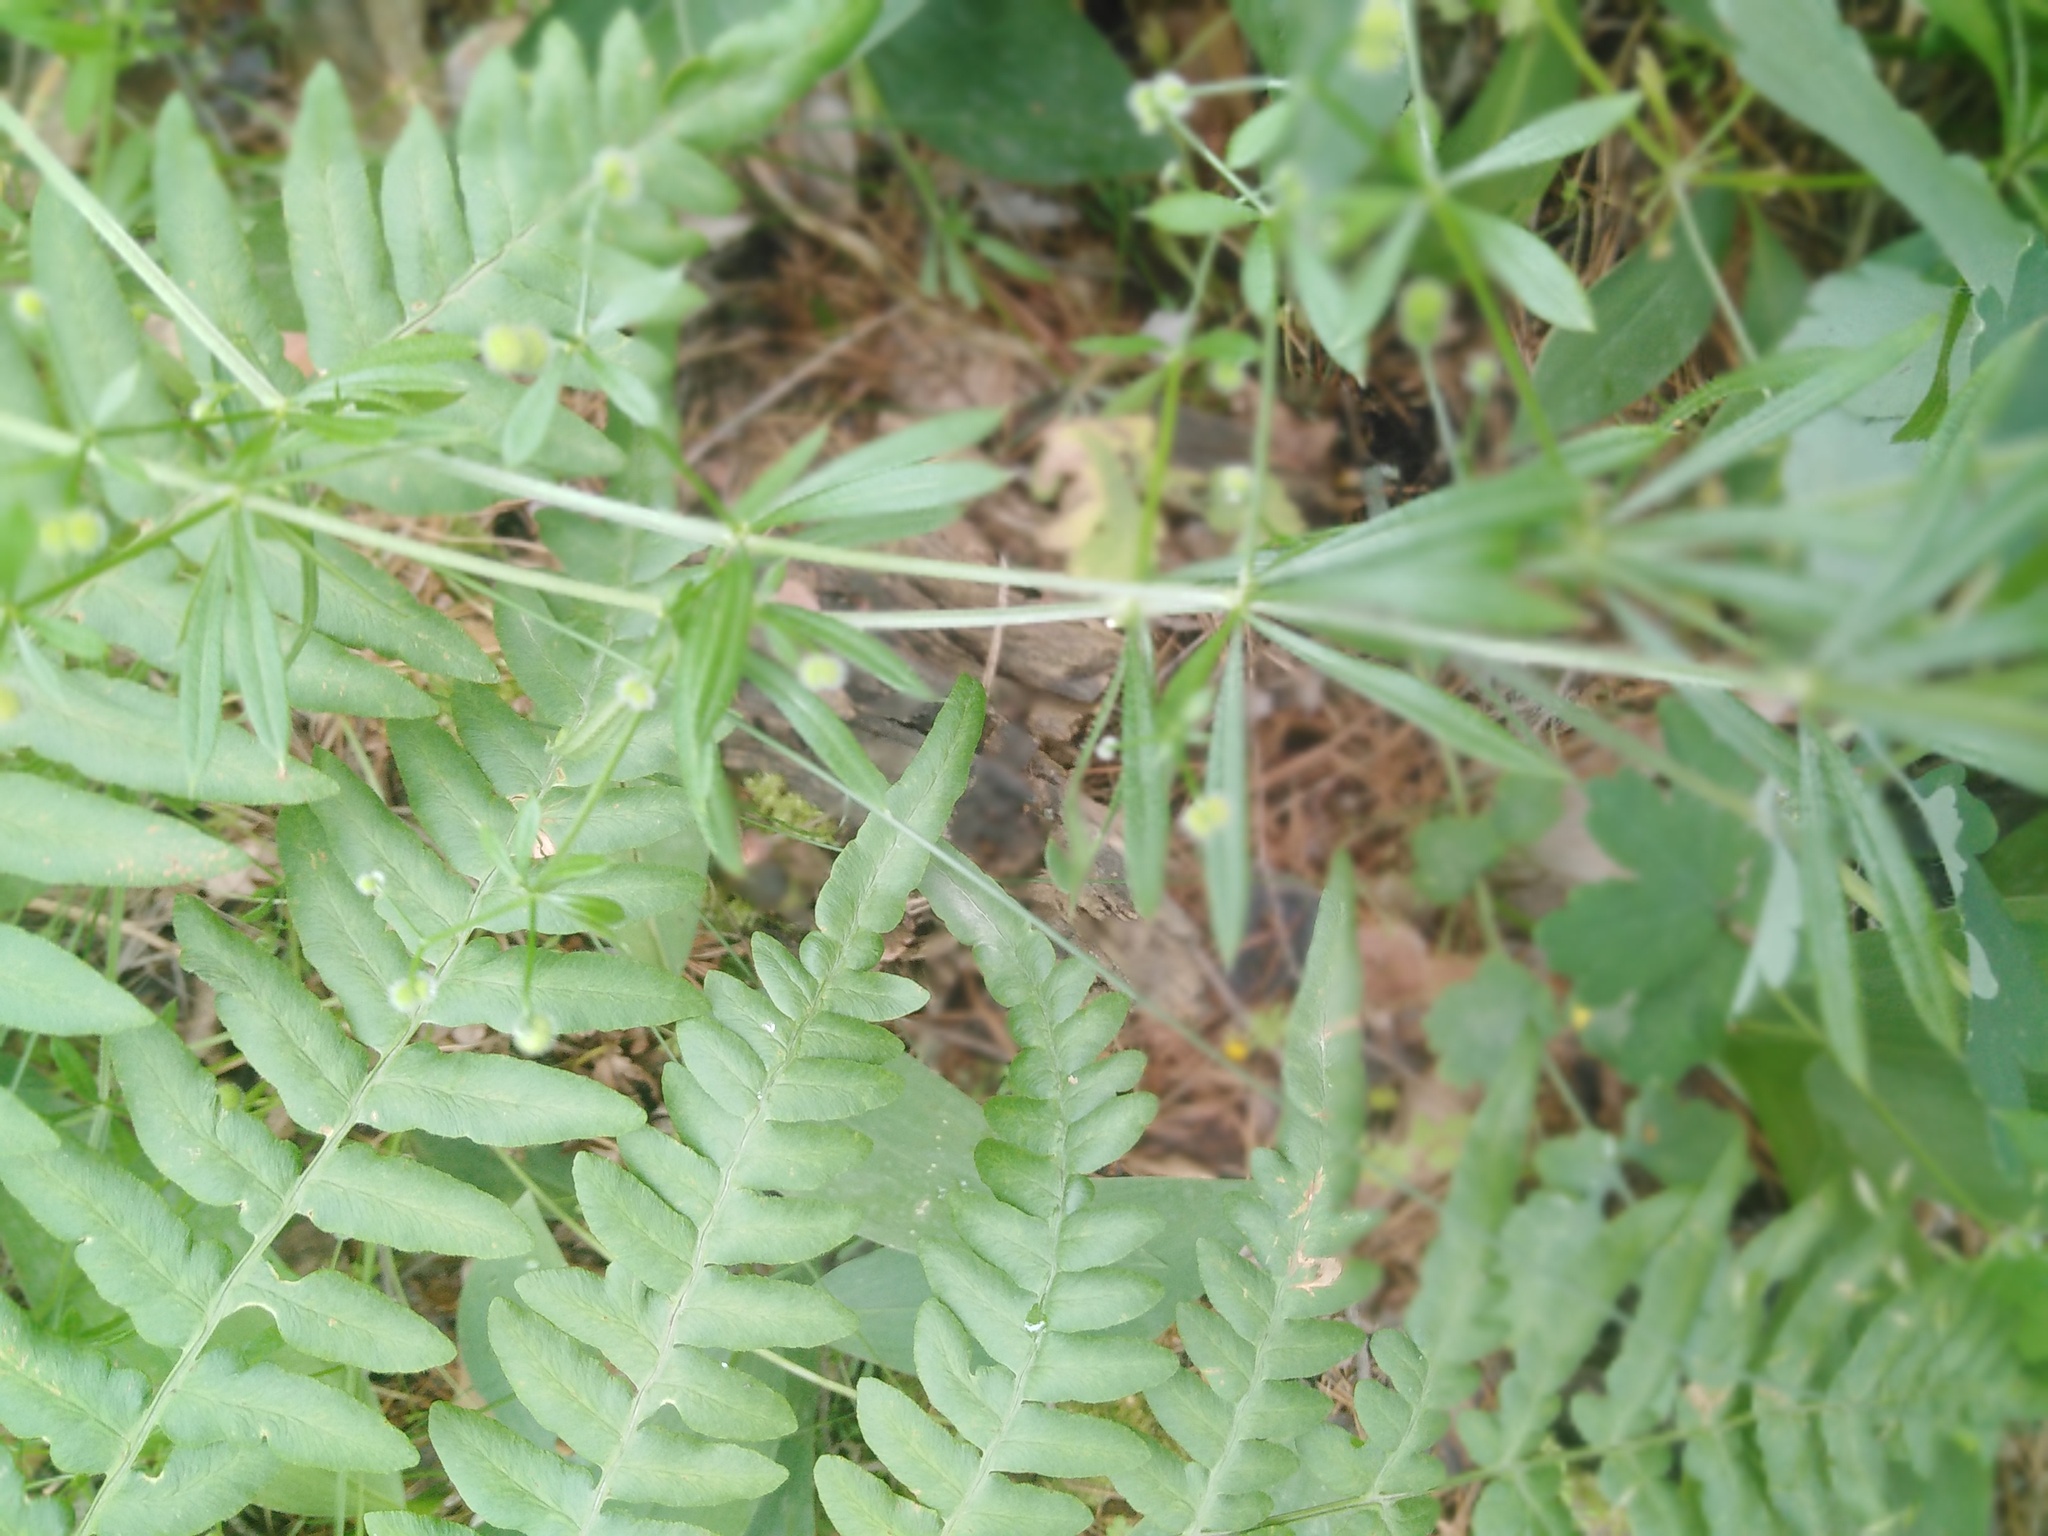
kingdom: Plantae
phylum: Tracheophyta
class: Magnoliopsida
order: Gentianales
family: Rubiaceae
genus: Galium
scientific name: Galium aparine
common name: Cleavers
